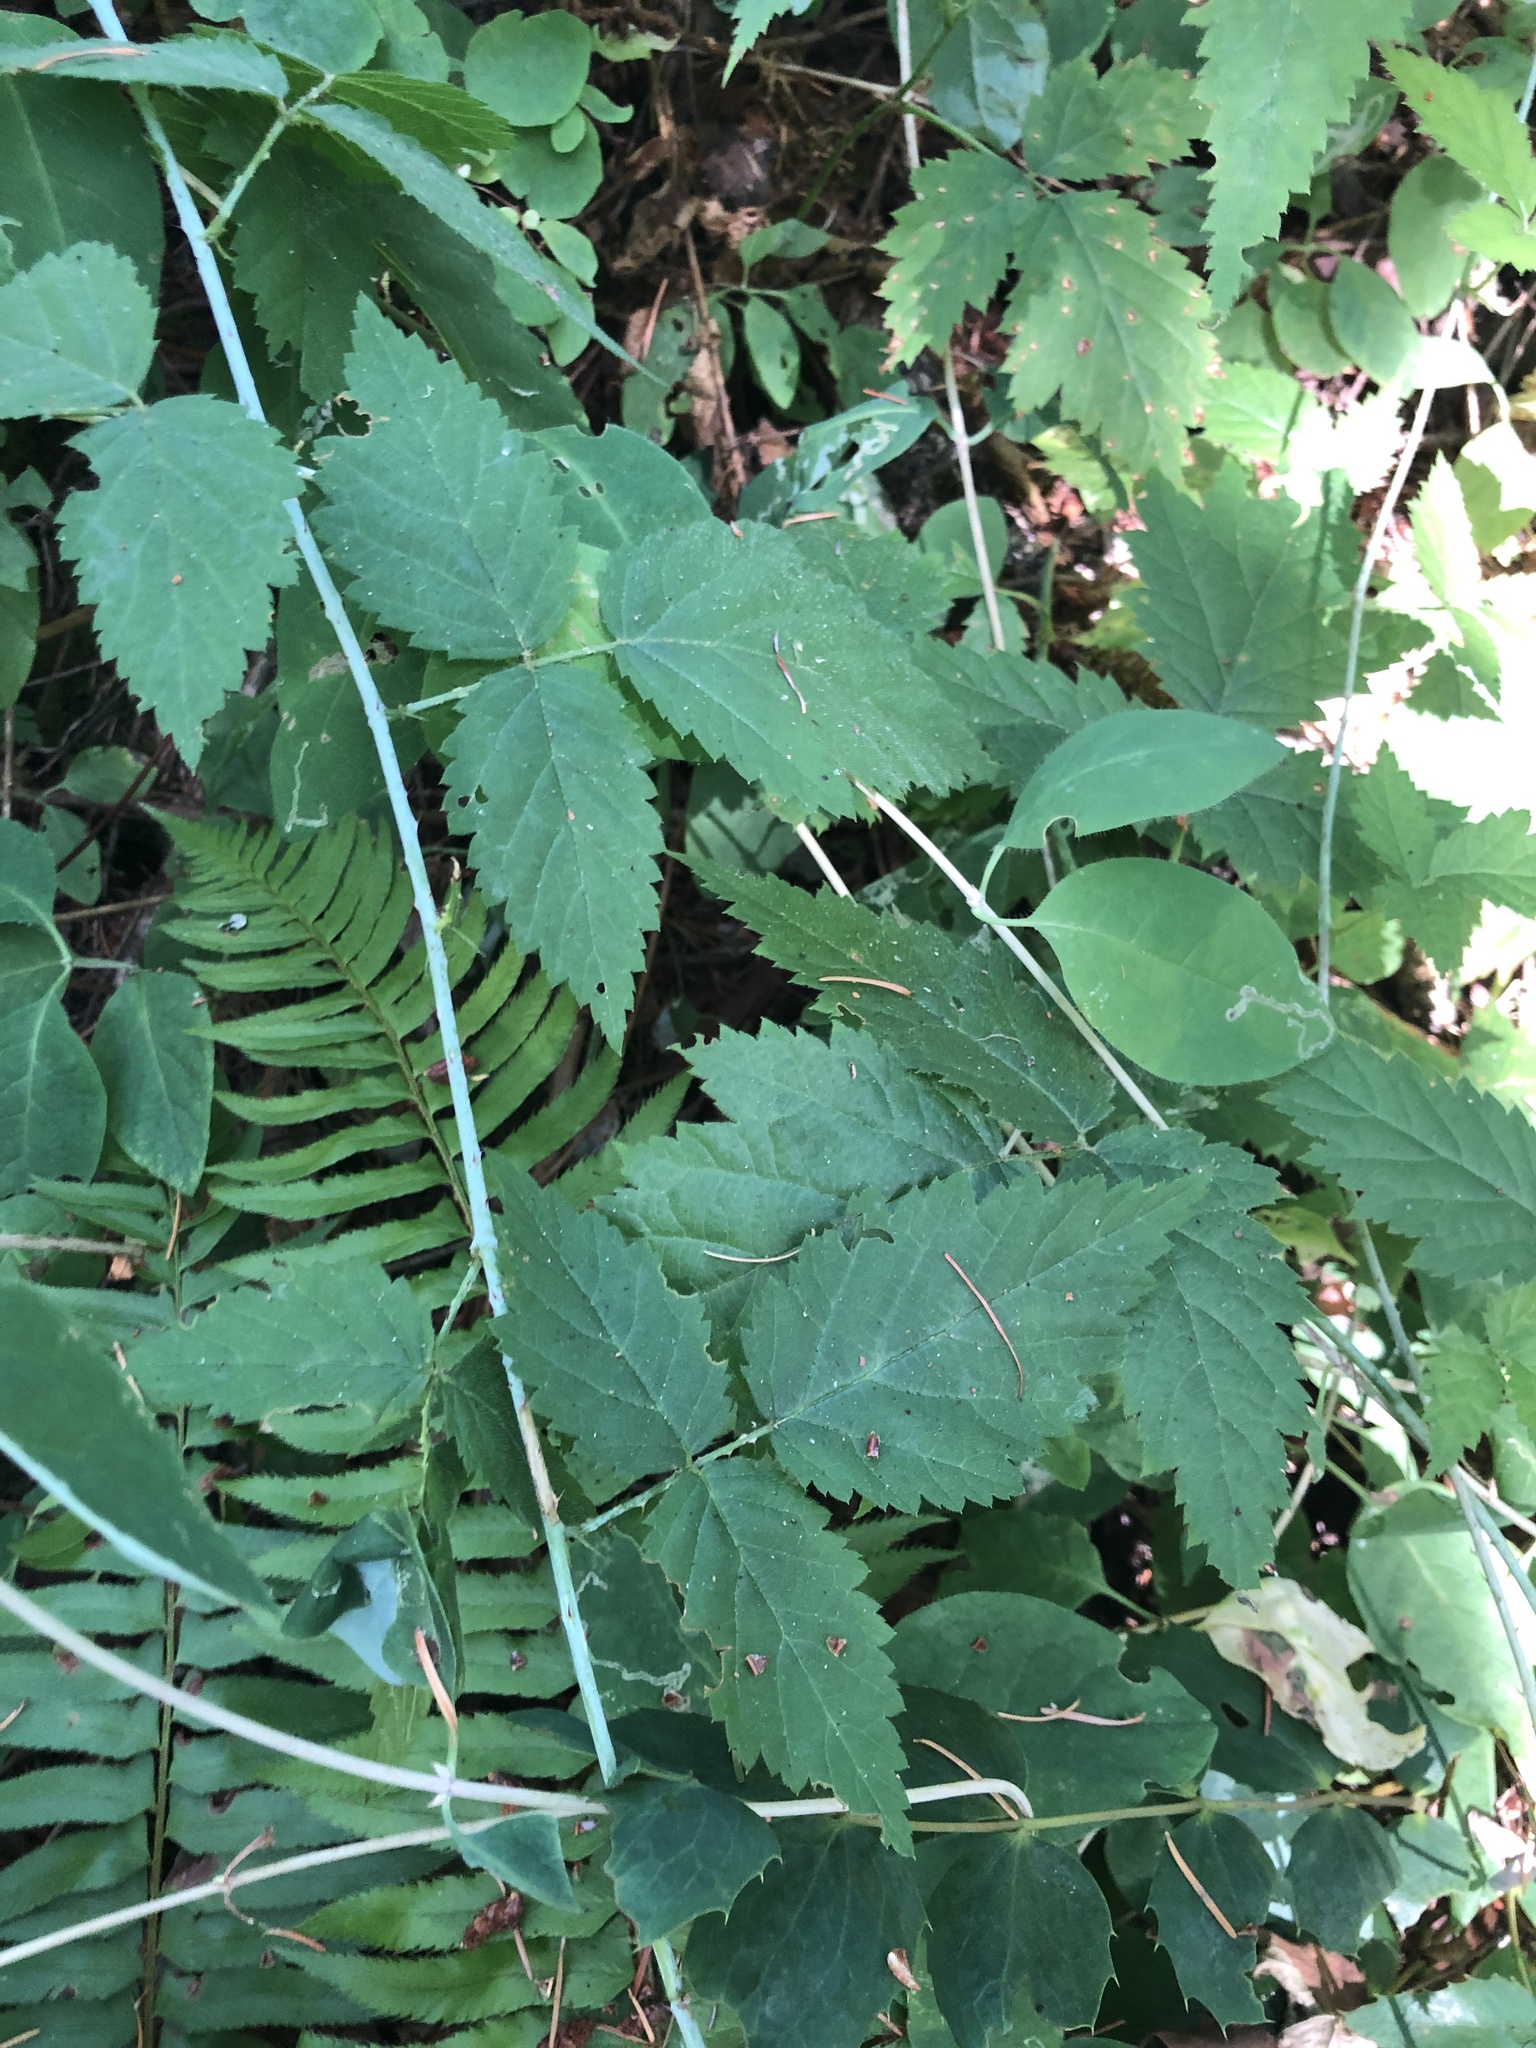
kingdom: Plantae
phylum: Tracheophyta
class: Magnoliopsida
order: Rosales
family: Rosaceae
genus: Rubus
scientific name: Rubus ursinus
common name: Pacific blackberry
